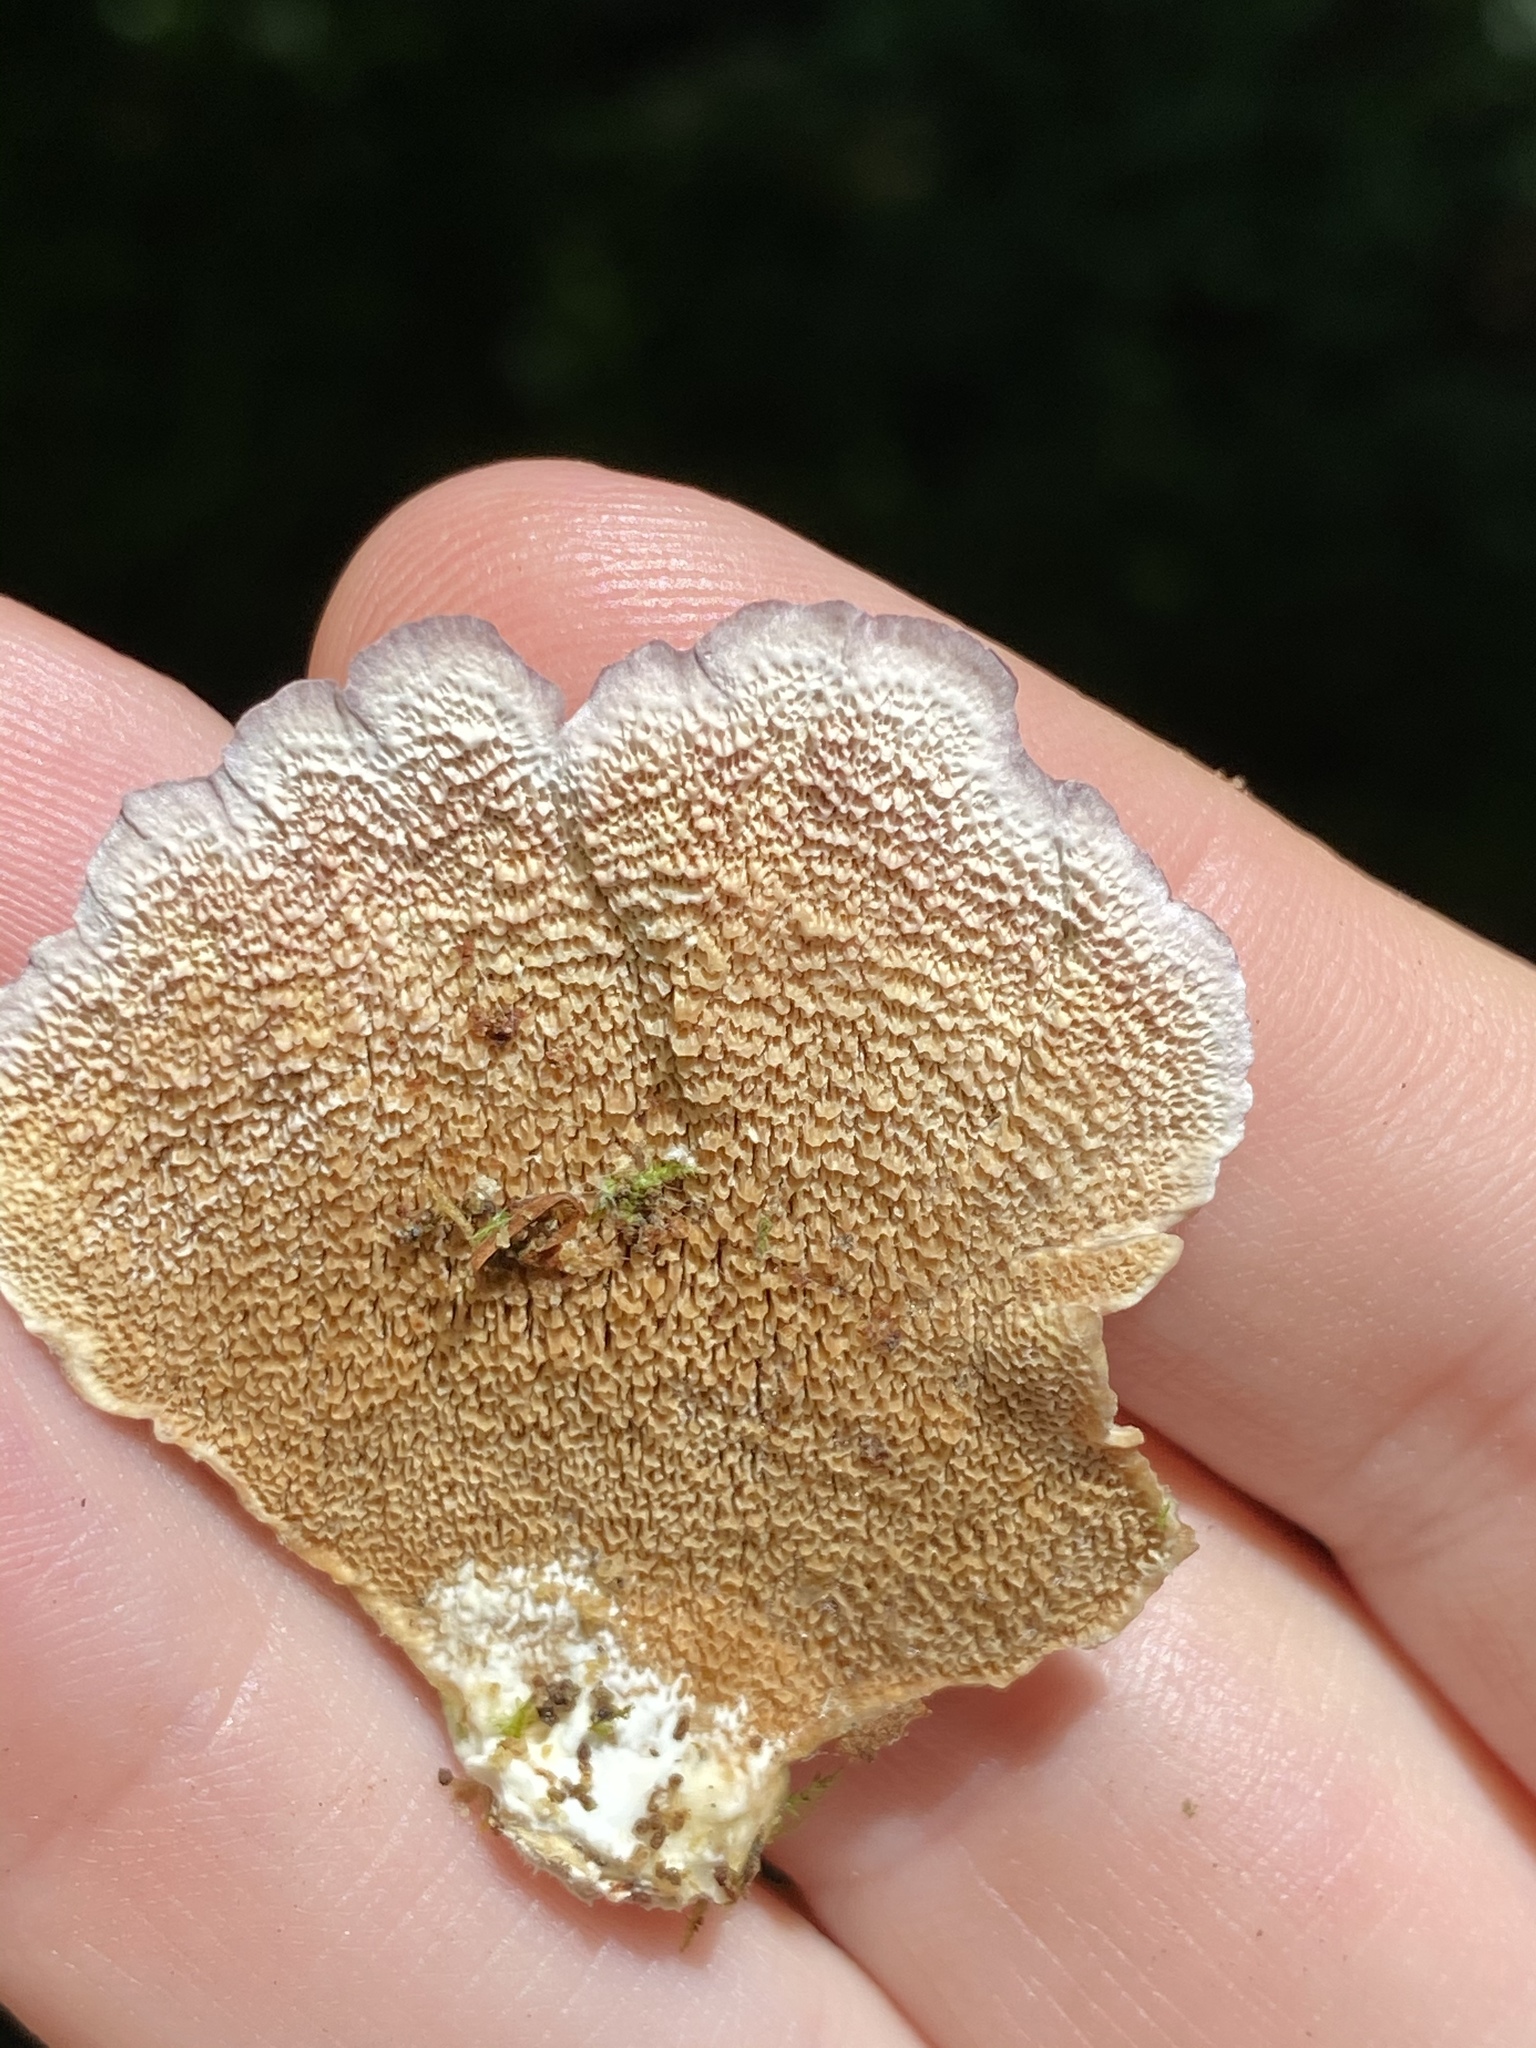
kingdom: Fungi
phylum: Basidiomycota
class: Agaricomycetes
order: Hymenochaetales
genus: Trichaptum
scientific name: Trichaptum biforme
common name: Violet-toothed polypore
